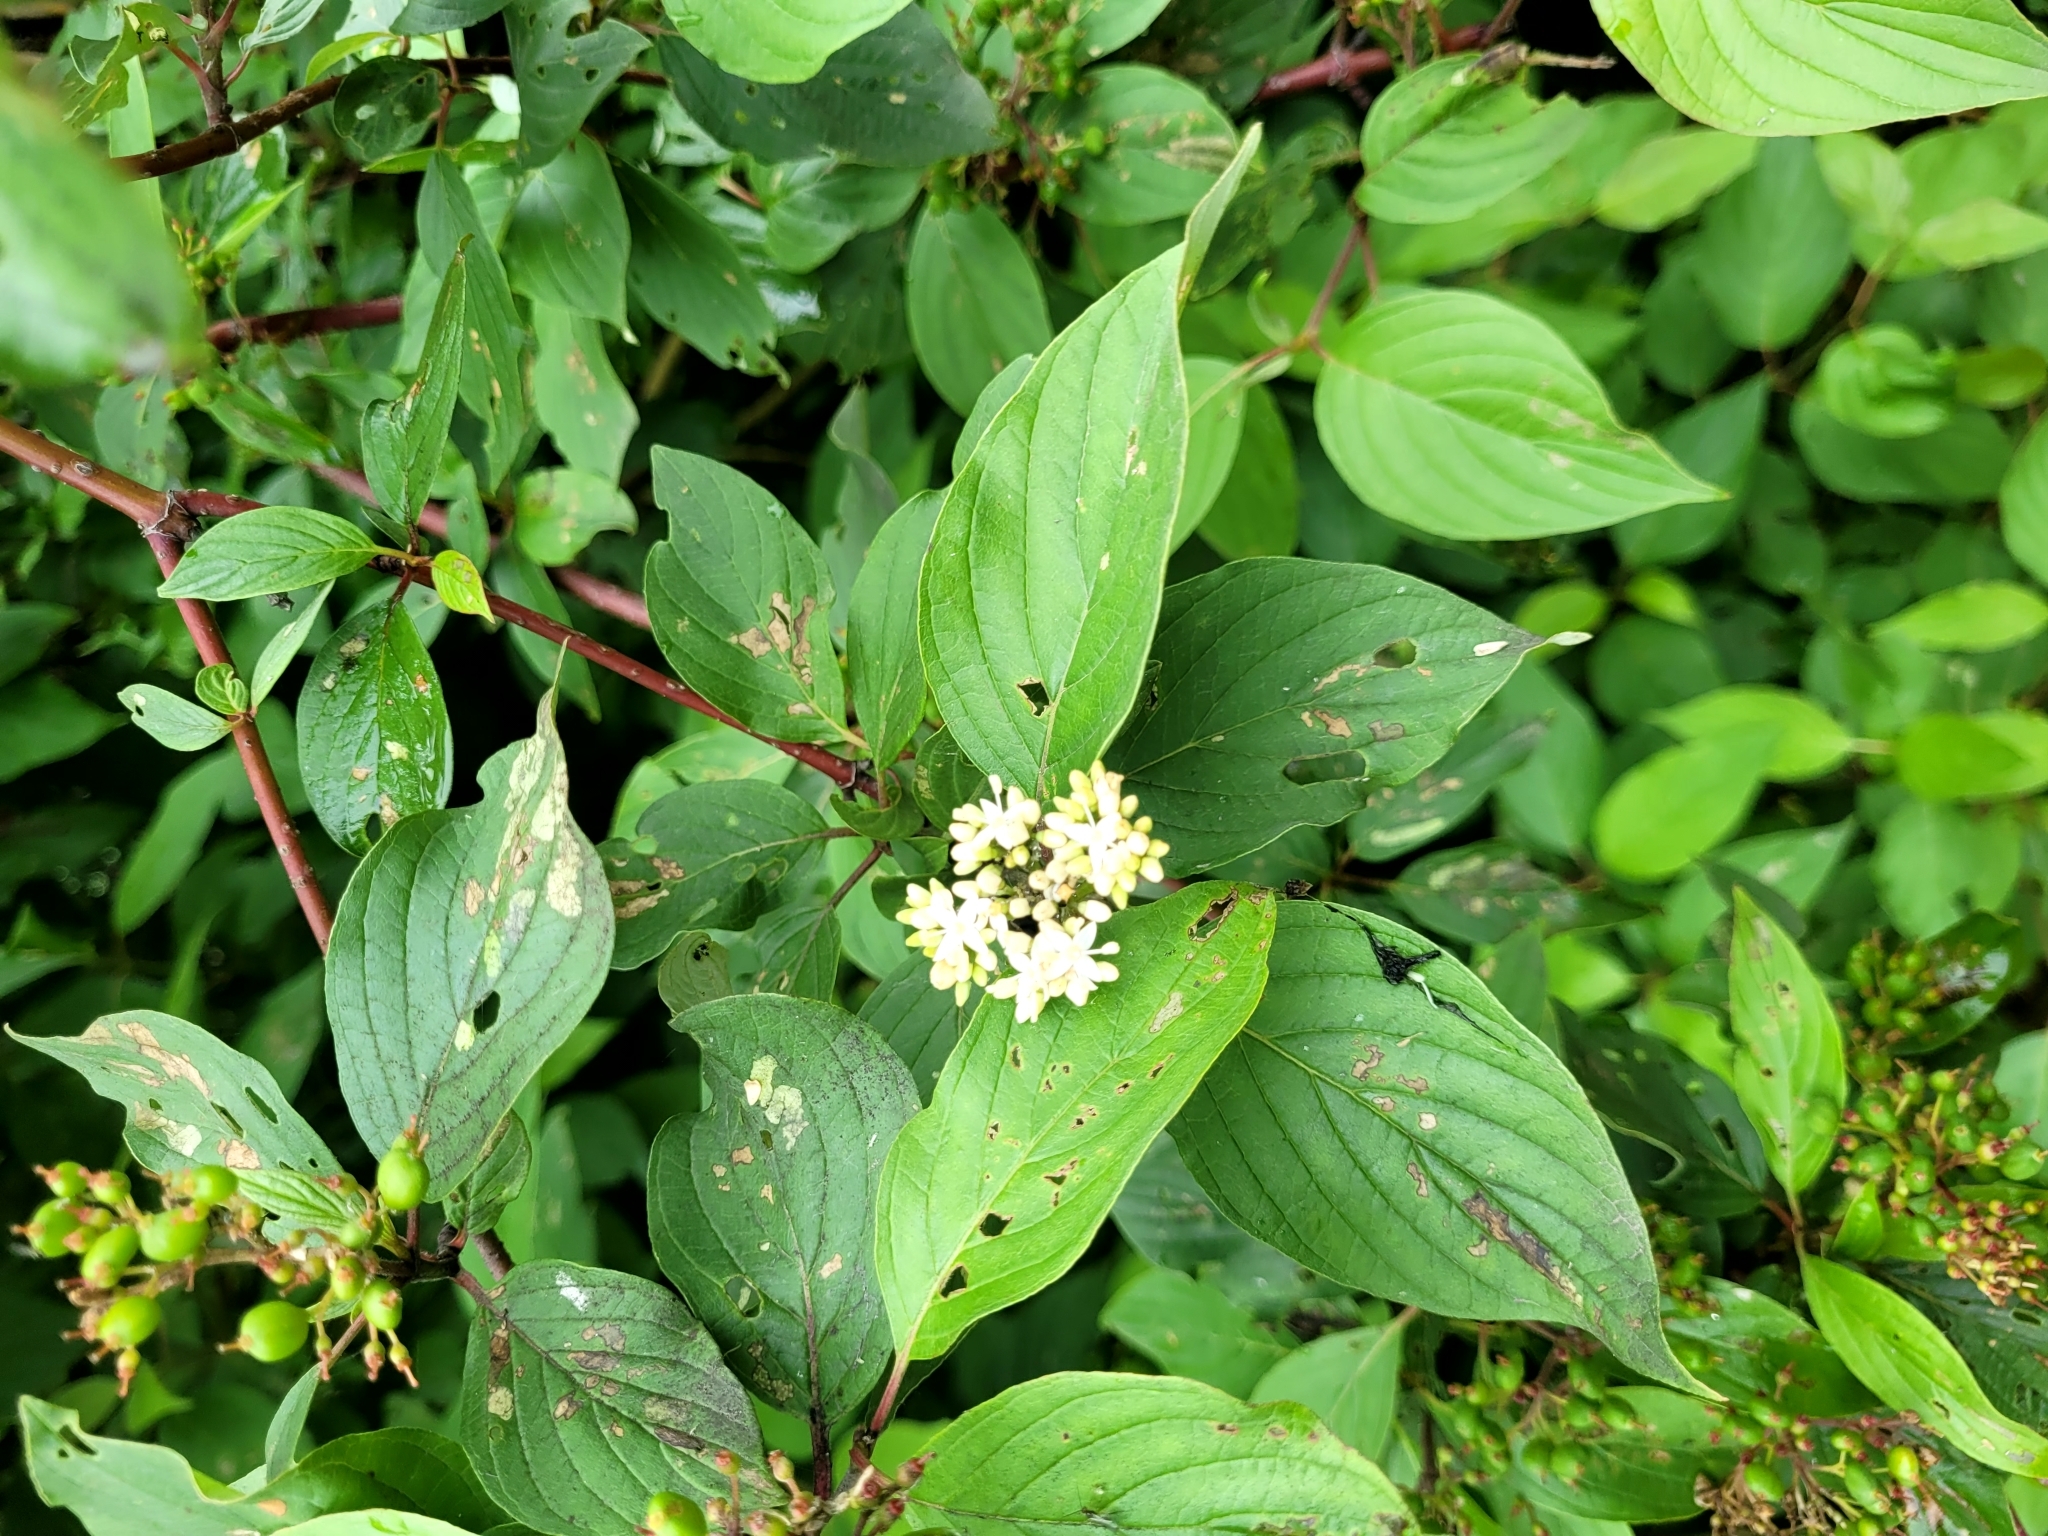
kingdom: Plantae
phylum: Tracheophyta
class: Magnoliopsida
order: Cornales
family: Cornaceae
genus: Cornus
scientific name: Cornus sericea
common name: Red-osier dogwood
